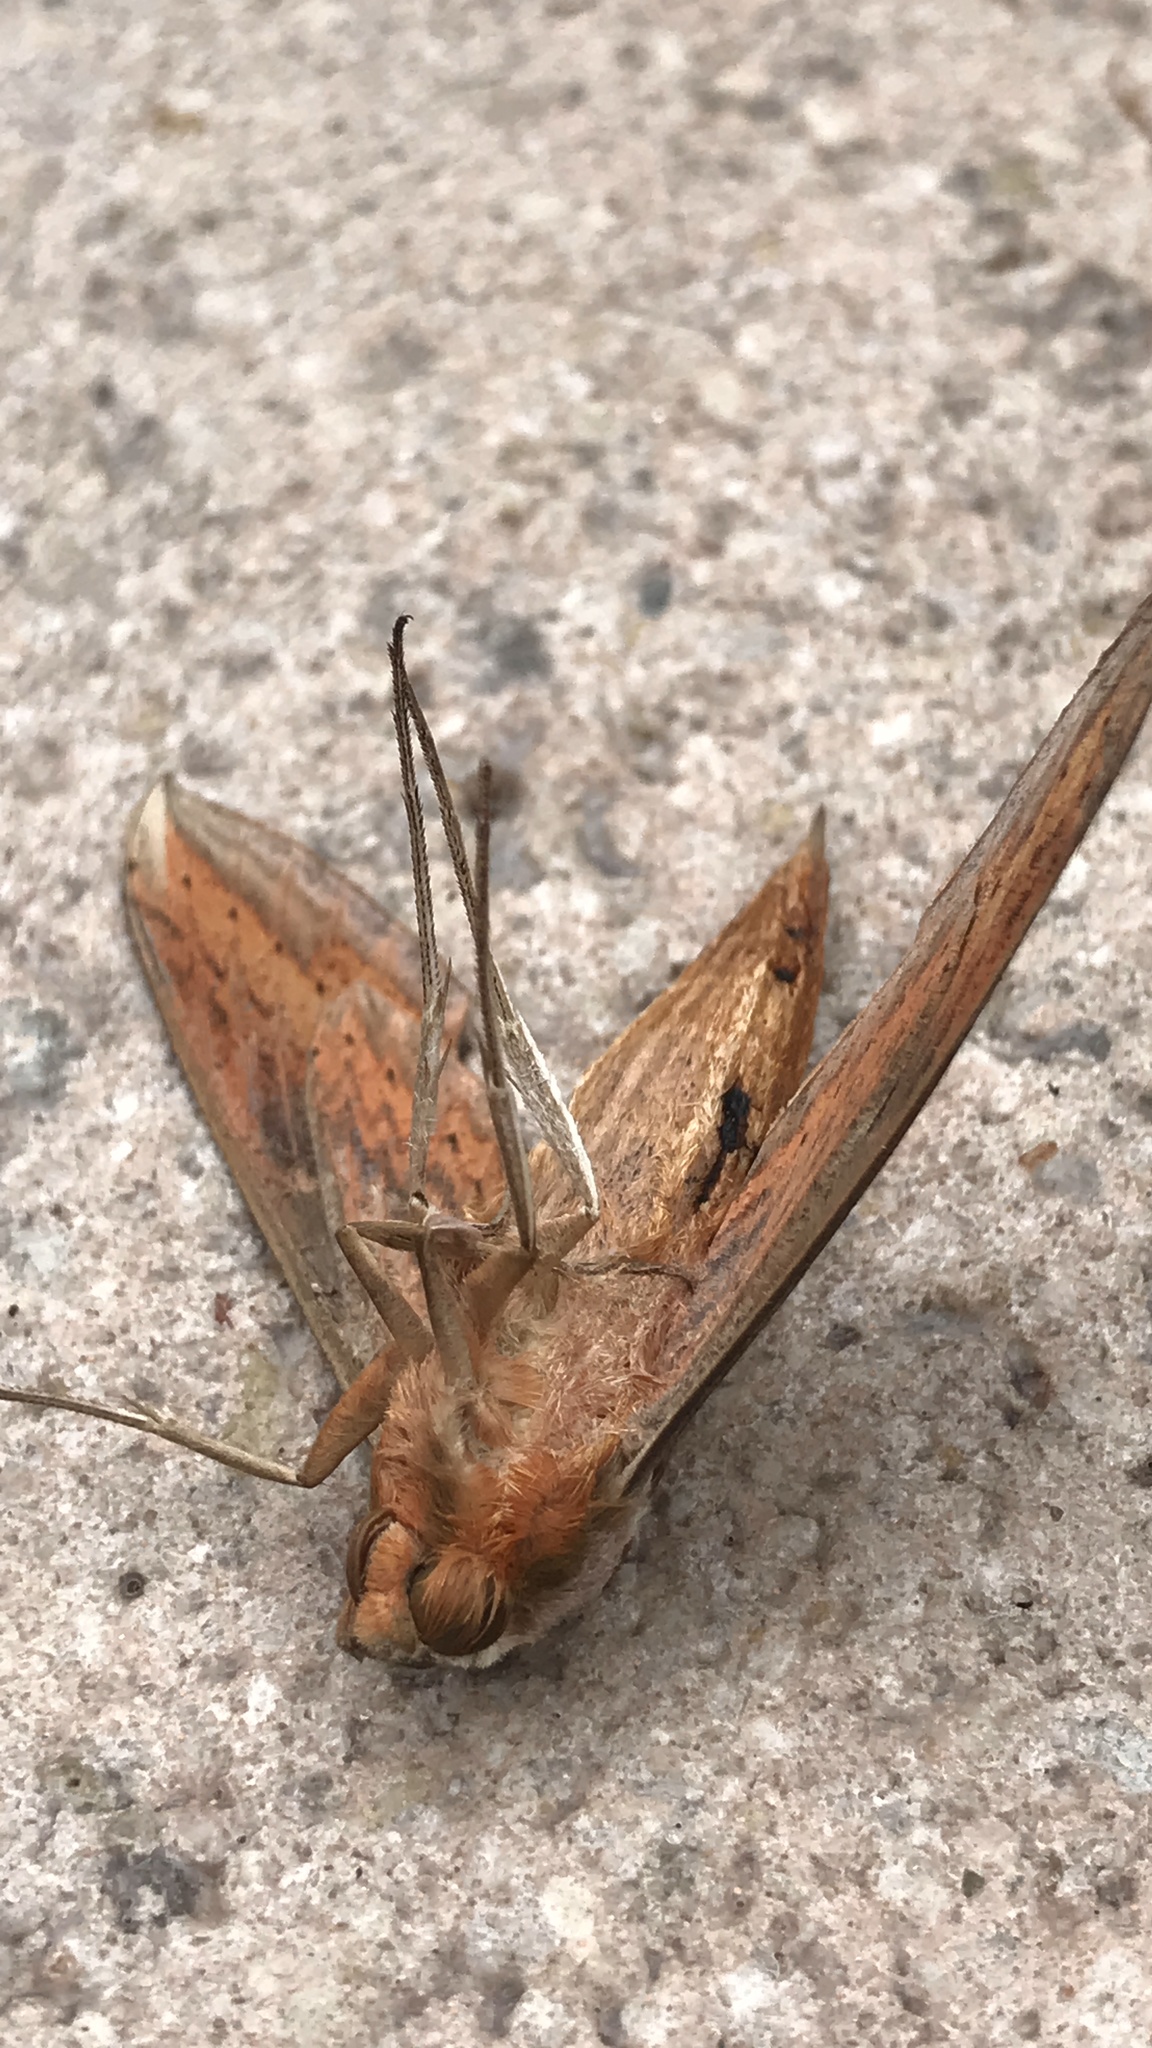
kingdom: Animalia
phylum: Arthropoda
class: Insecta
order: Lepidoptera
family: Sphingidae
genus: Xylophanes
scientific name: Xylophanes tersa
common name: Tersa sphinx
